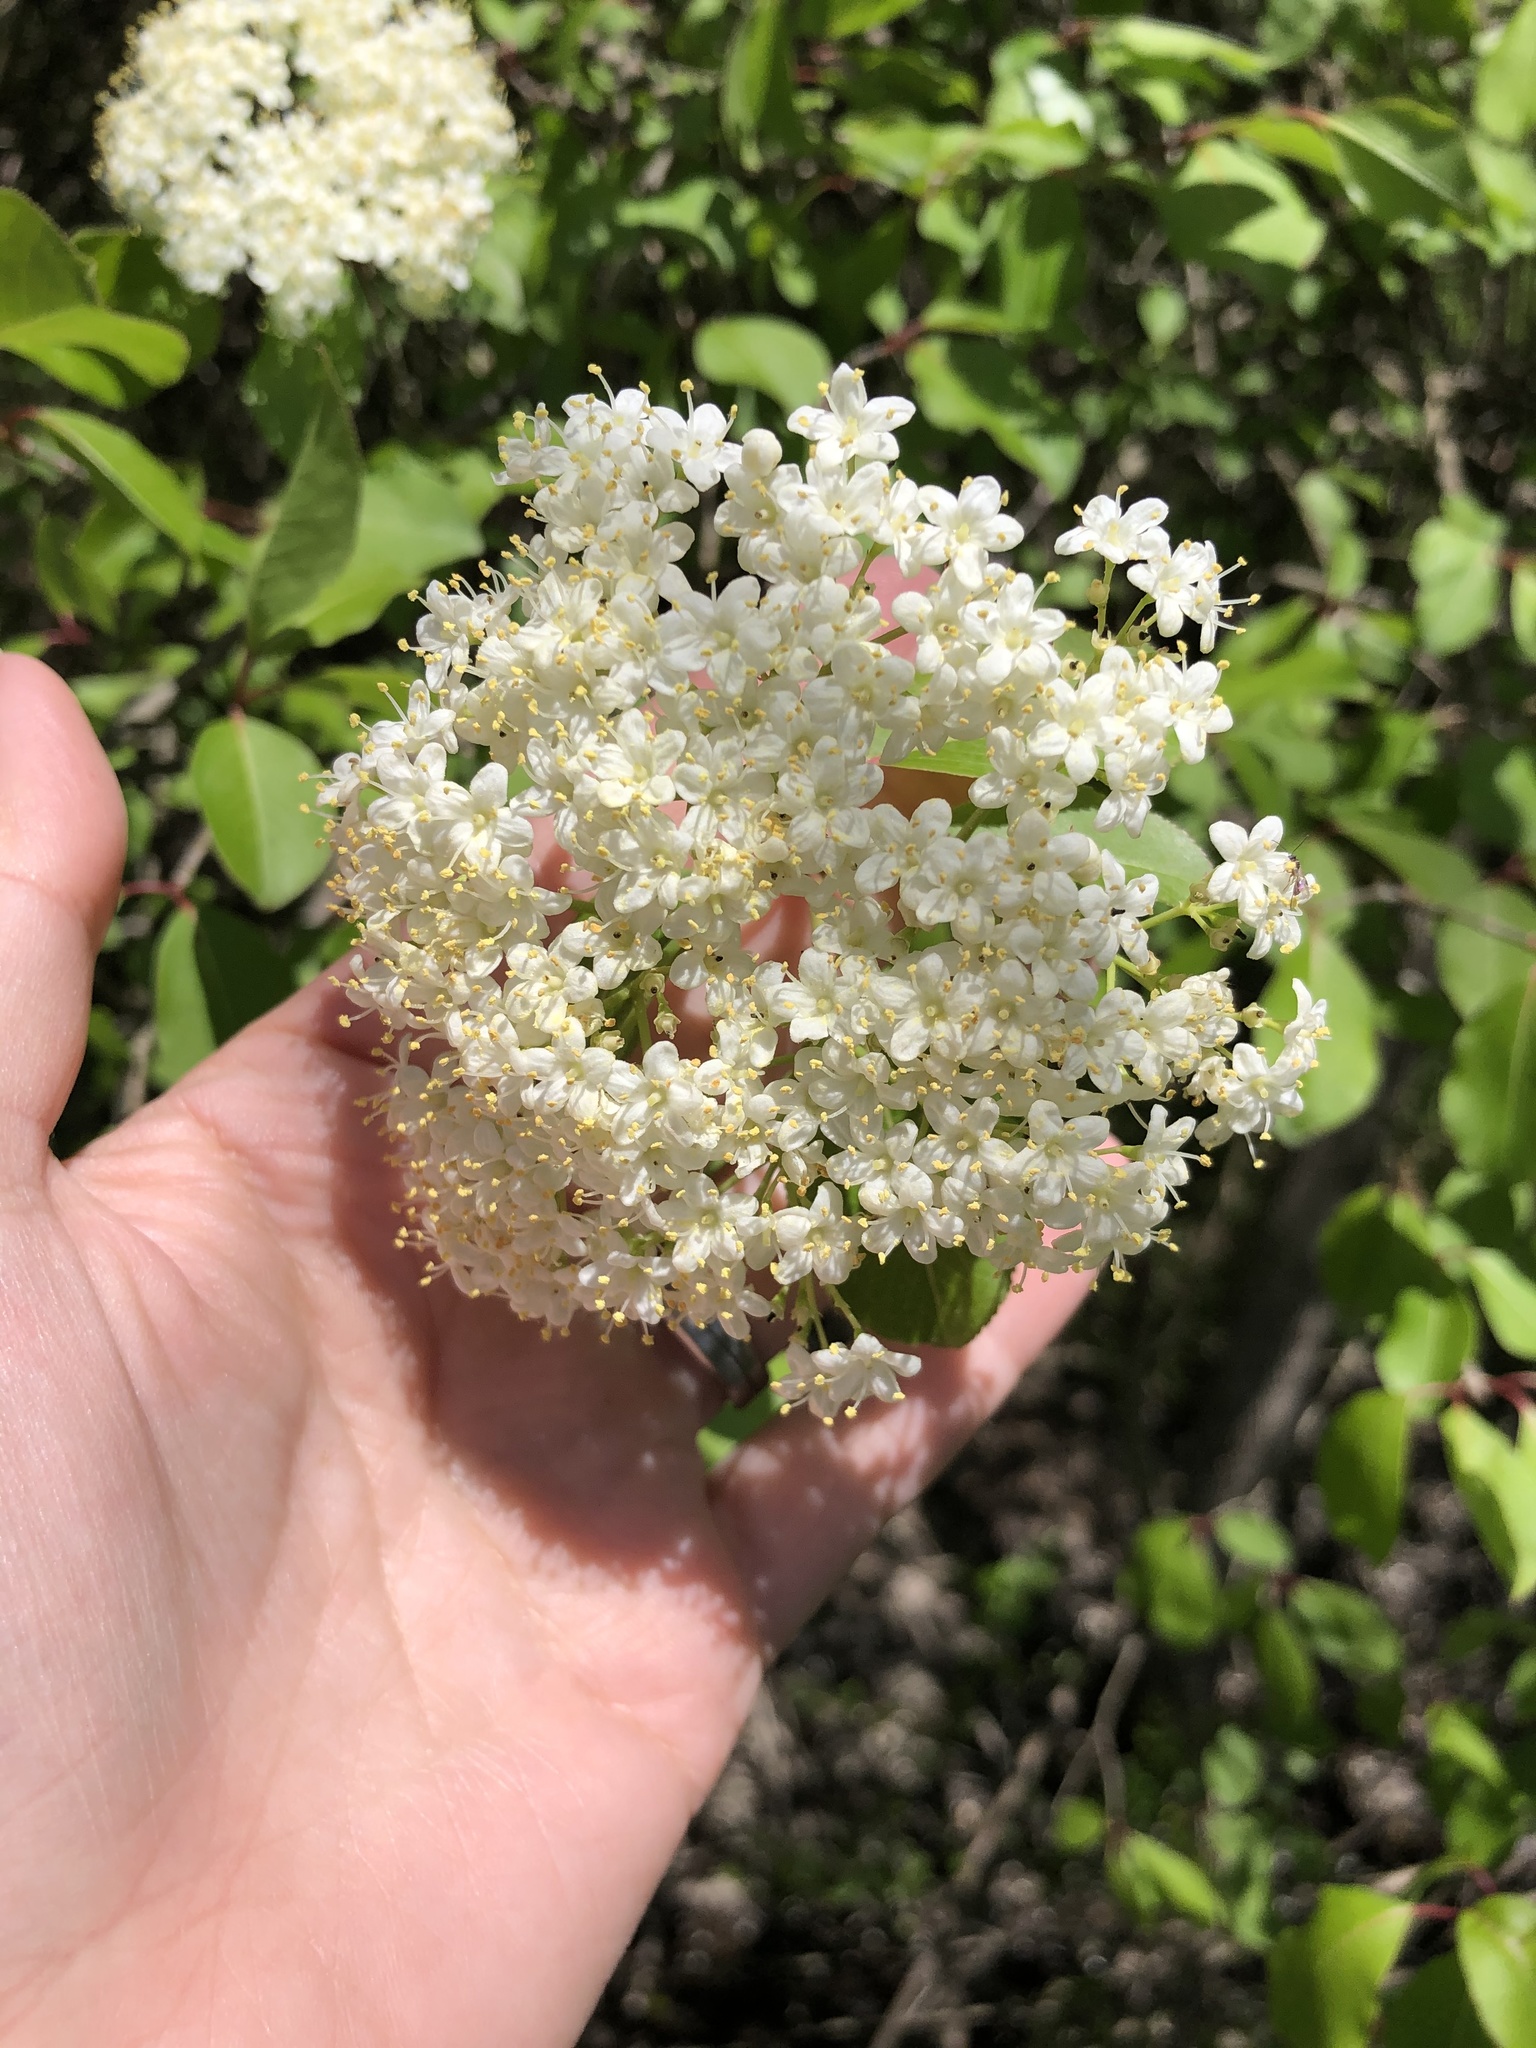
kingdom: Plantae
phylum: Tracheophyta
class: Magnoliopsida
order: Dipsacales
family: Viburnaceae
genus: Viburnum
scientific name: Viburnum prunifolium
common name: Black haw
